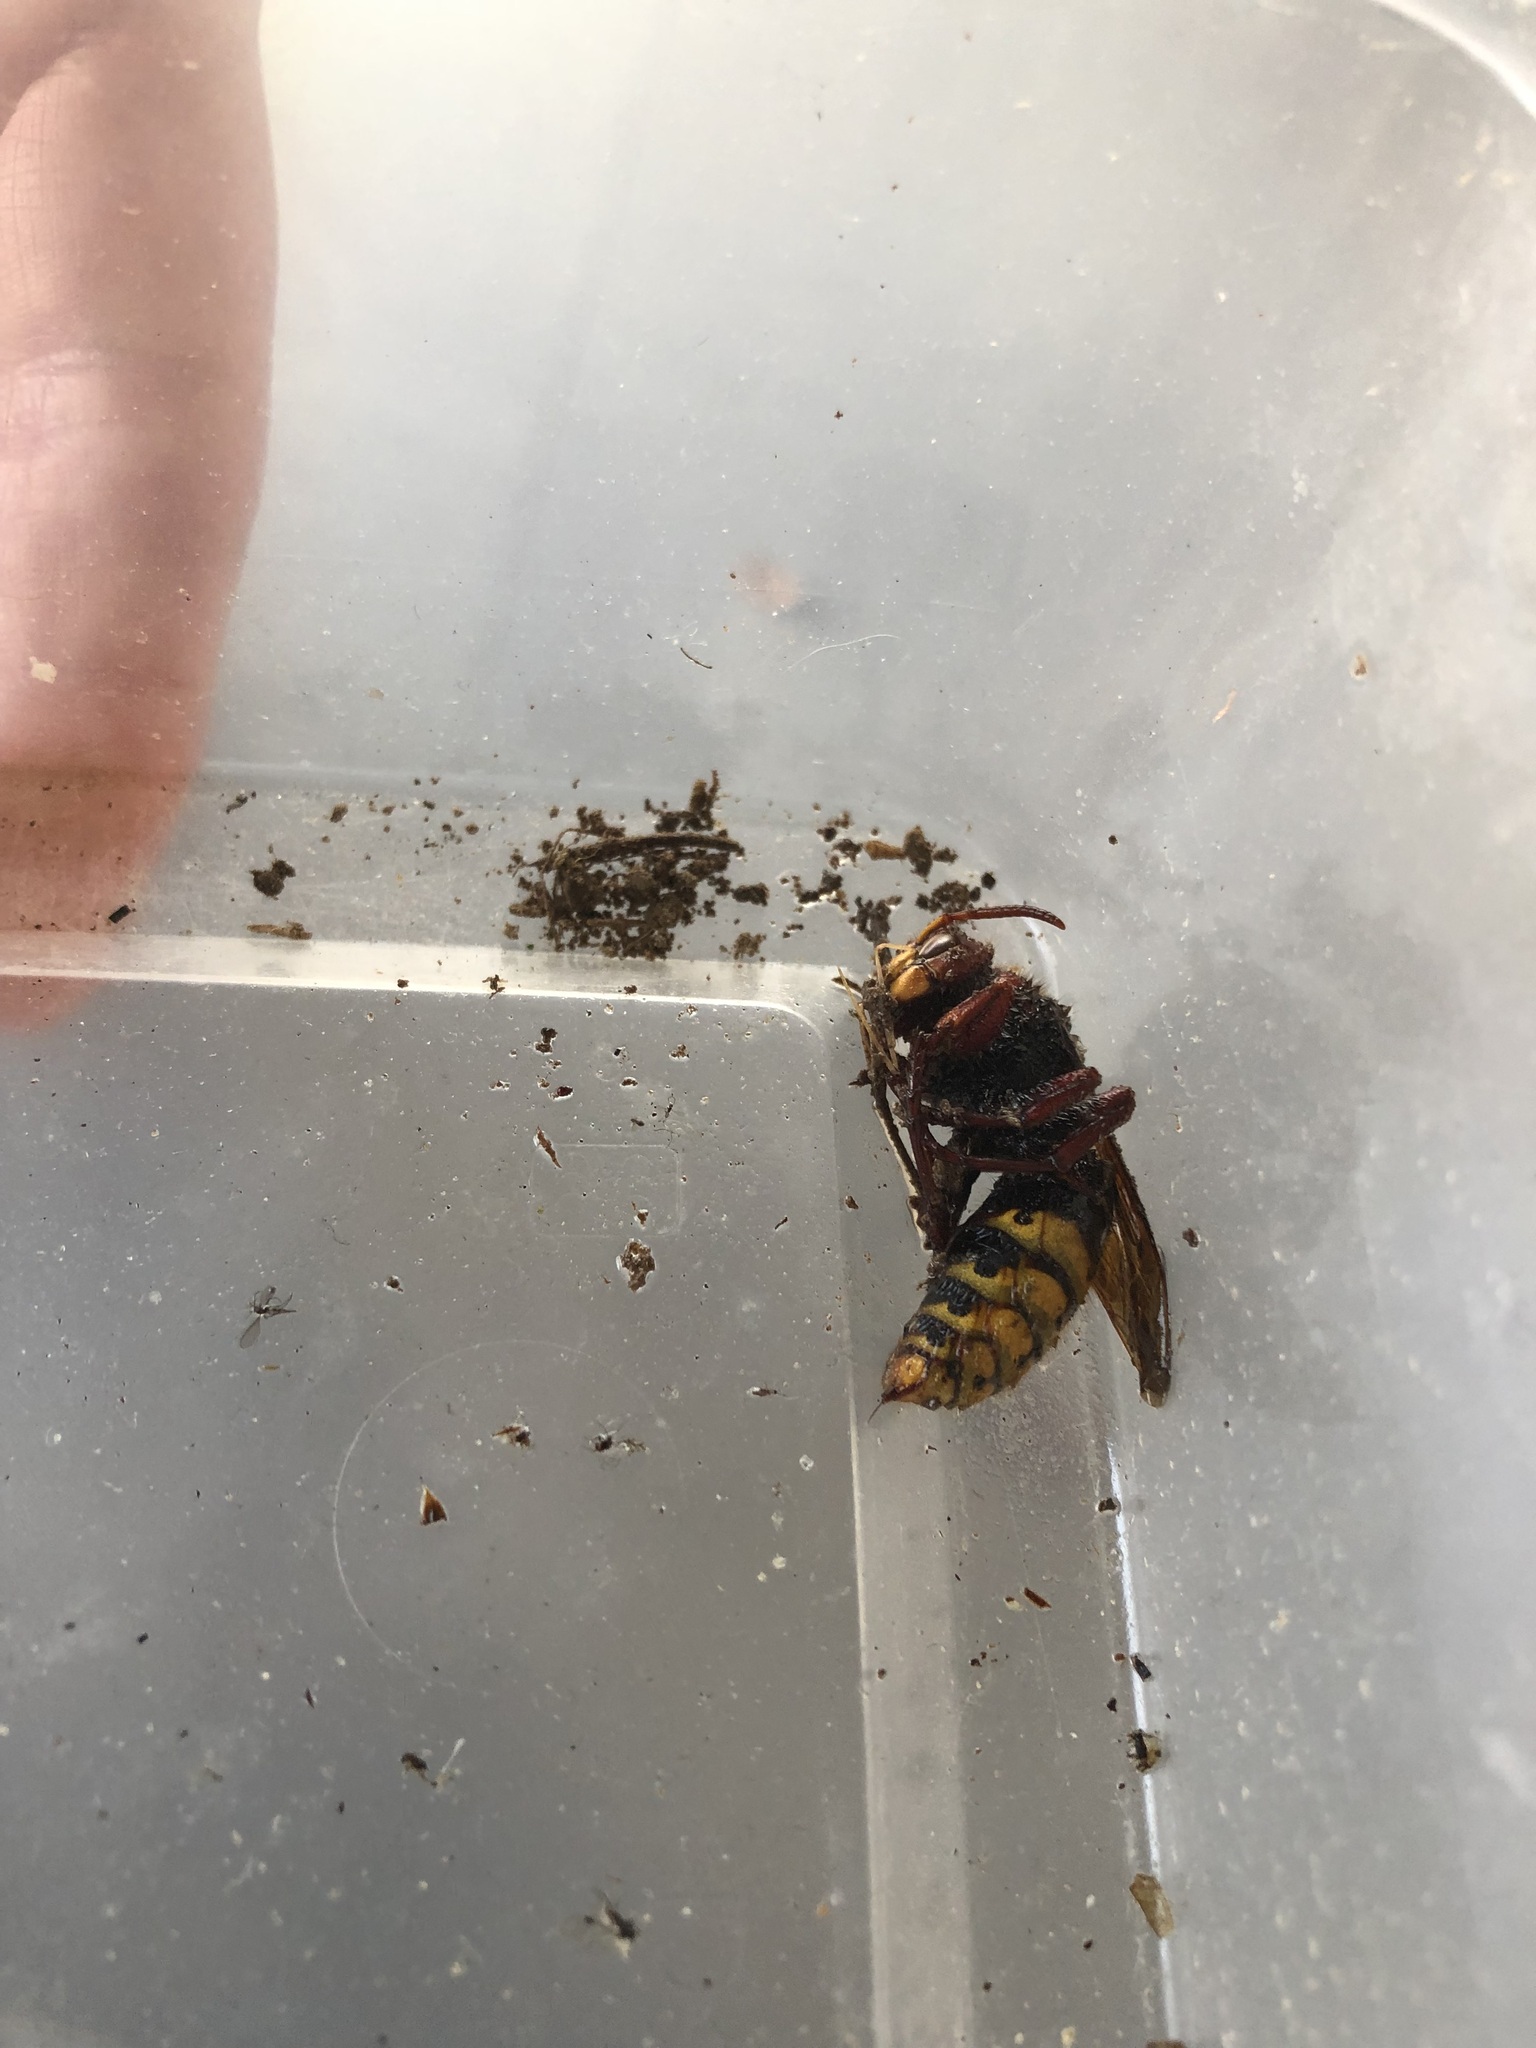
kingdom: Animalia
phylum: Arthropoda
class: Insecta
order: Hymenoptera
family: Vespidae
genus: Vespa
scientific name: Vespa crabro
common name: Hornet
